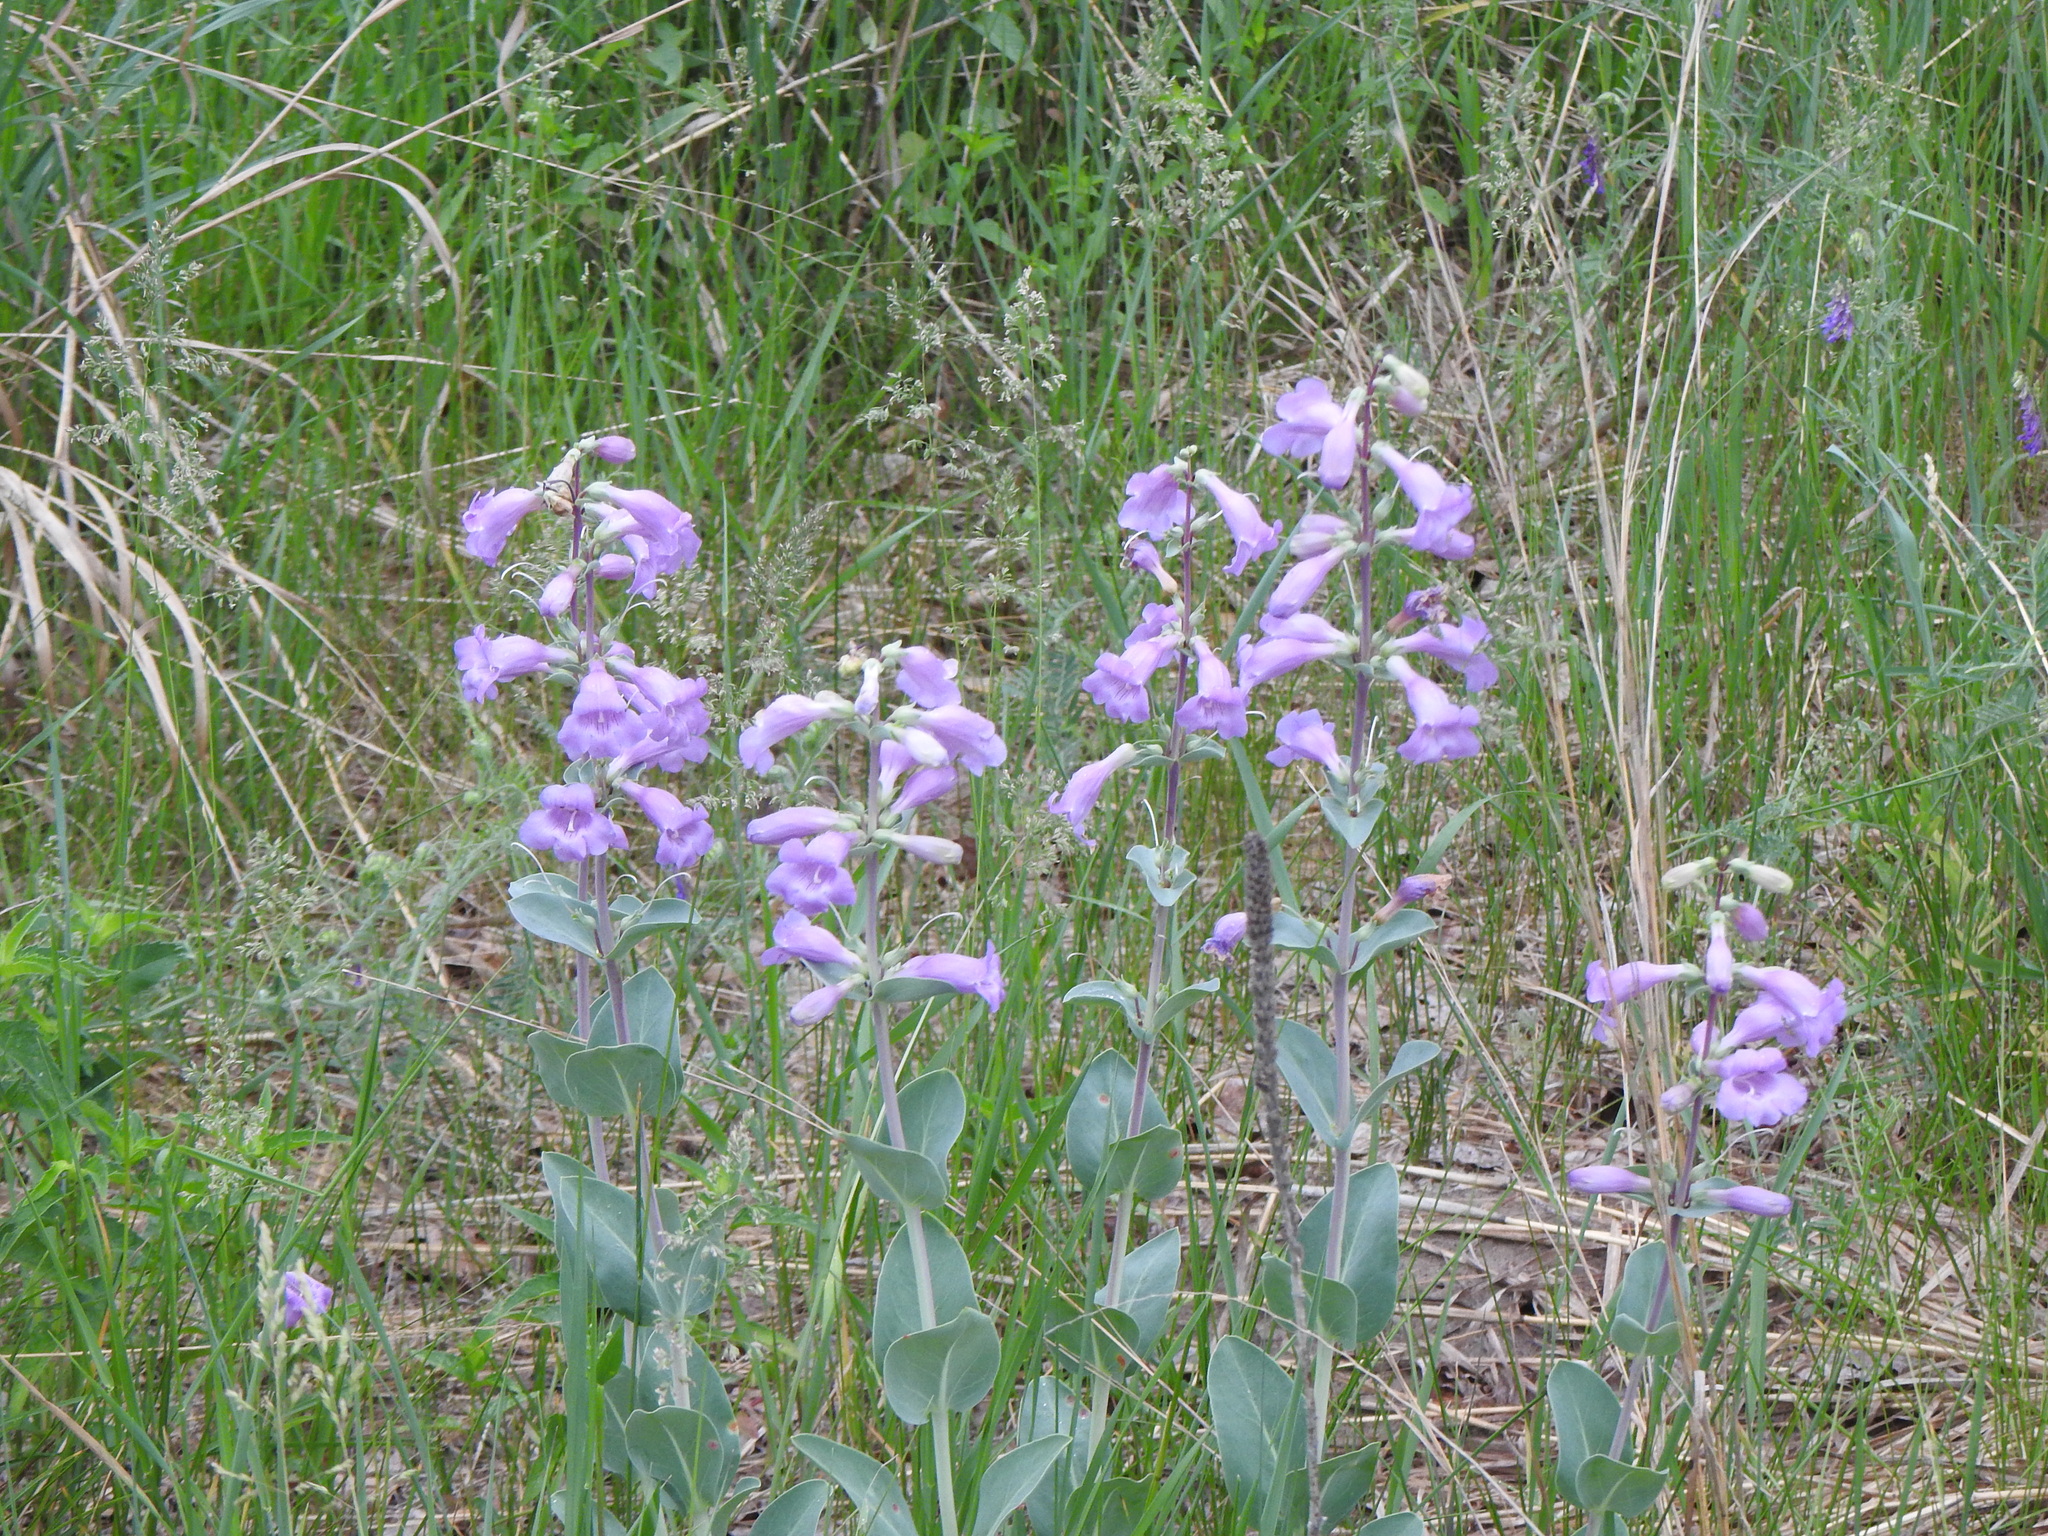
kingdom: Plantae
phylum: Tracheophyta
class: Magnoliopsida
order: Lamiales
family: Plantaginaceae
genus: Penstemon
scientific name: Penstemon
